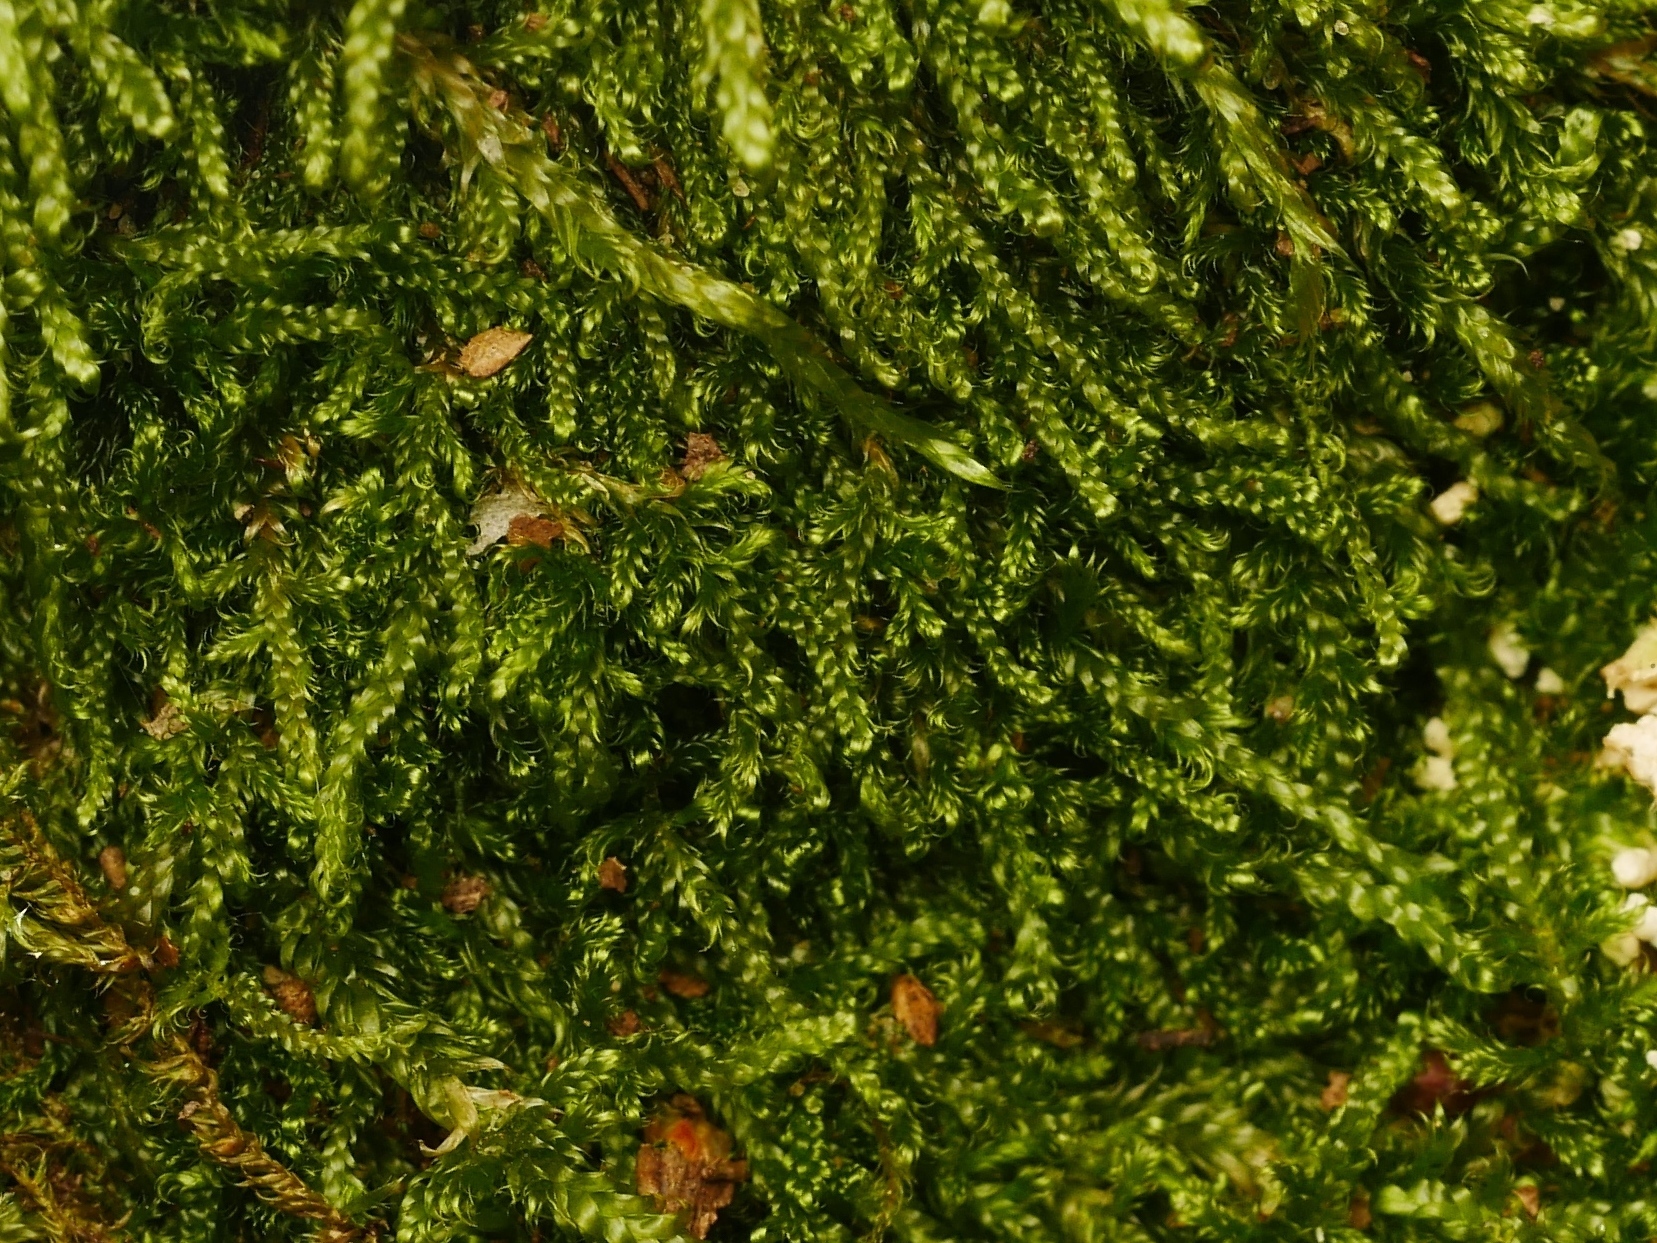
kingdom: Plantae
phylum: Bryophyta
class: Bryopsida
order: Hypnales
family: Hypnaceae
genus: Hypnum
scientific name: Hypnum cupressiforme
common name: Cypress-leaved plait-moss
